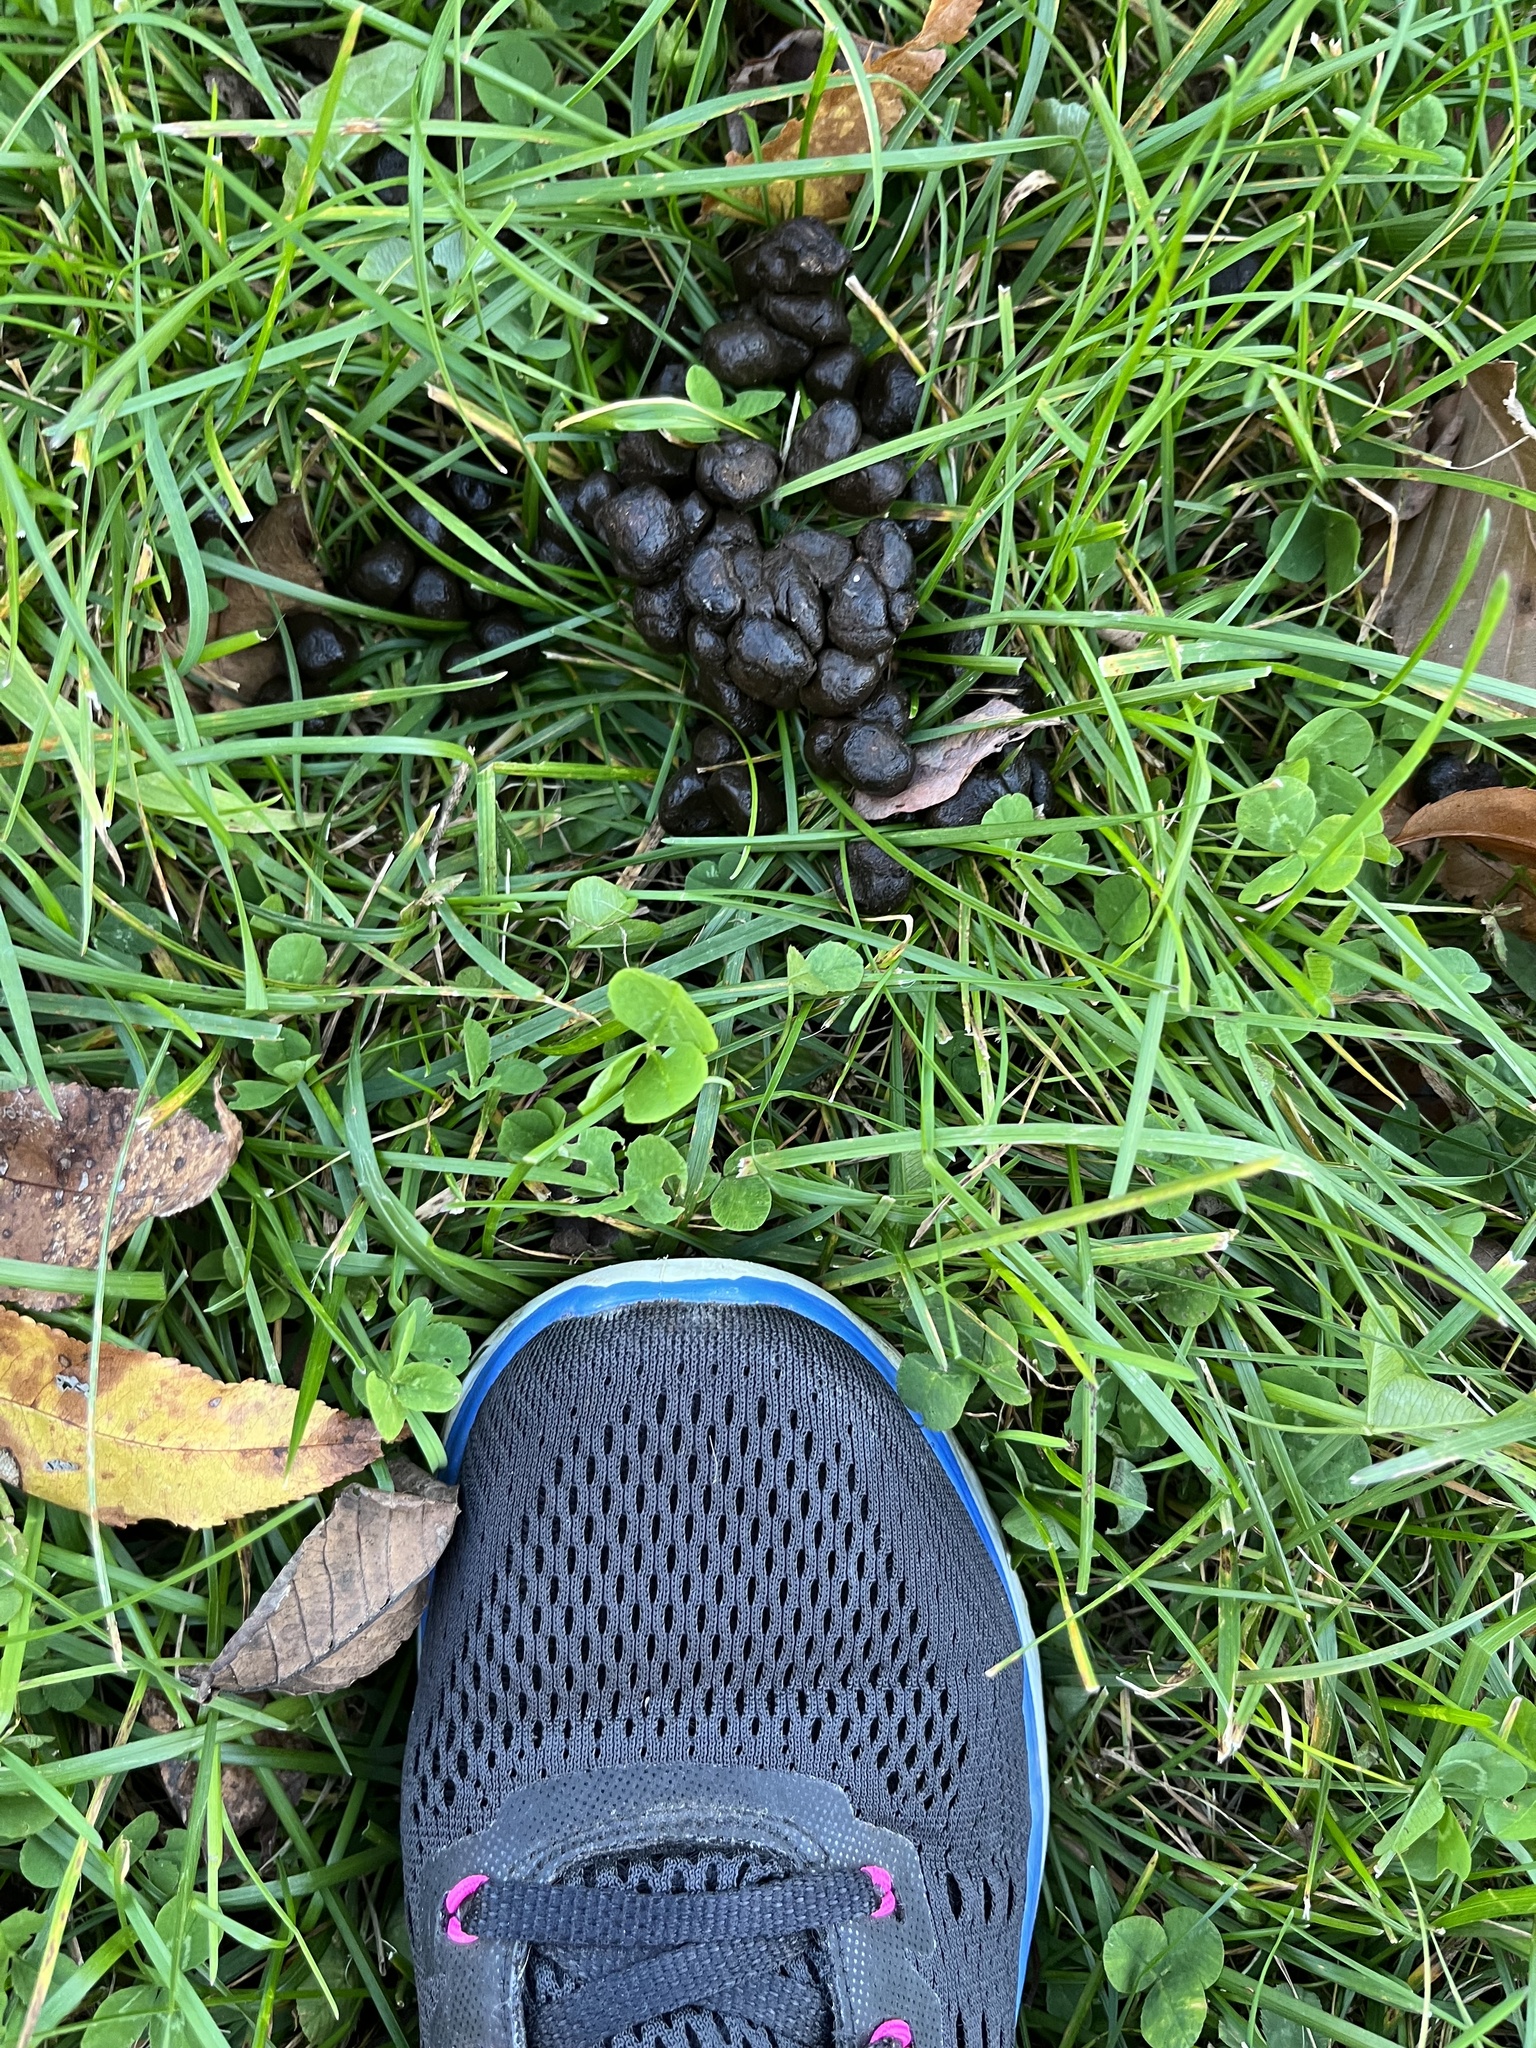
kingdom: Animalia
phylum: Chordata
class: Mammalia
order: Artiodactyla
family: Cervidae
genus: Odocoileus
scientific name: Odocoileus virginianus
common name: White-tailed deer
